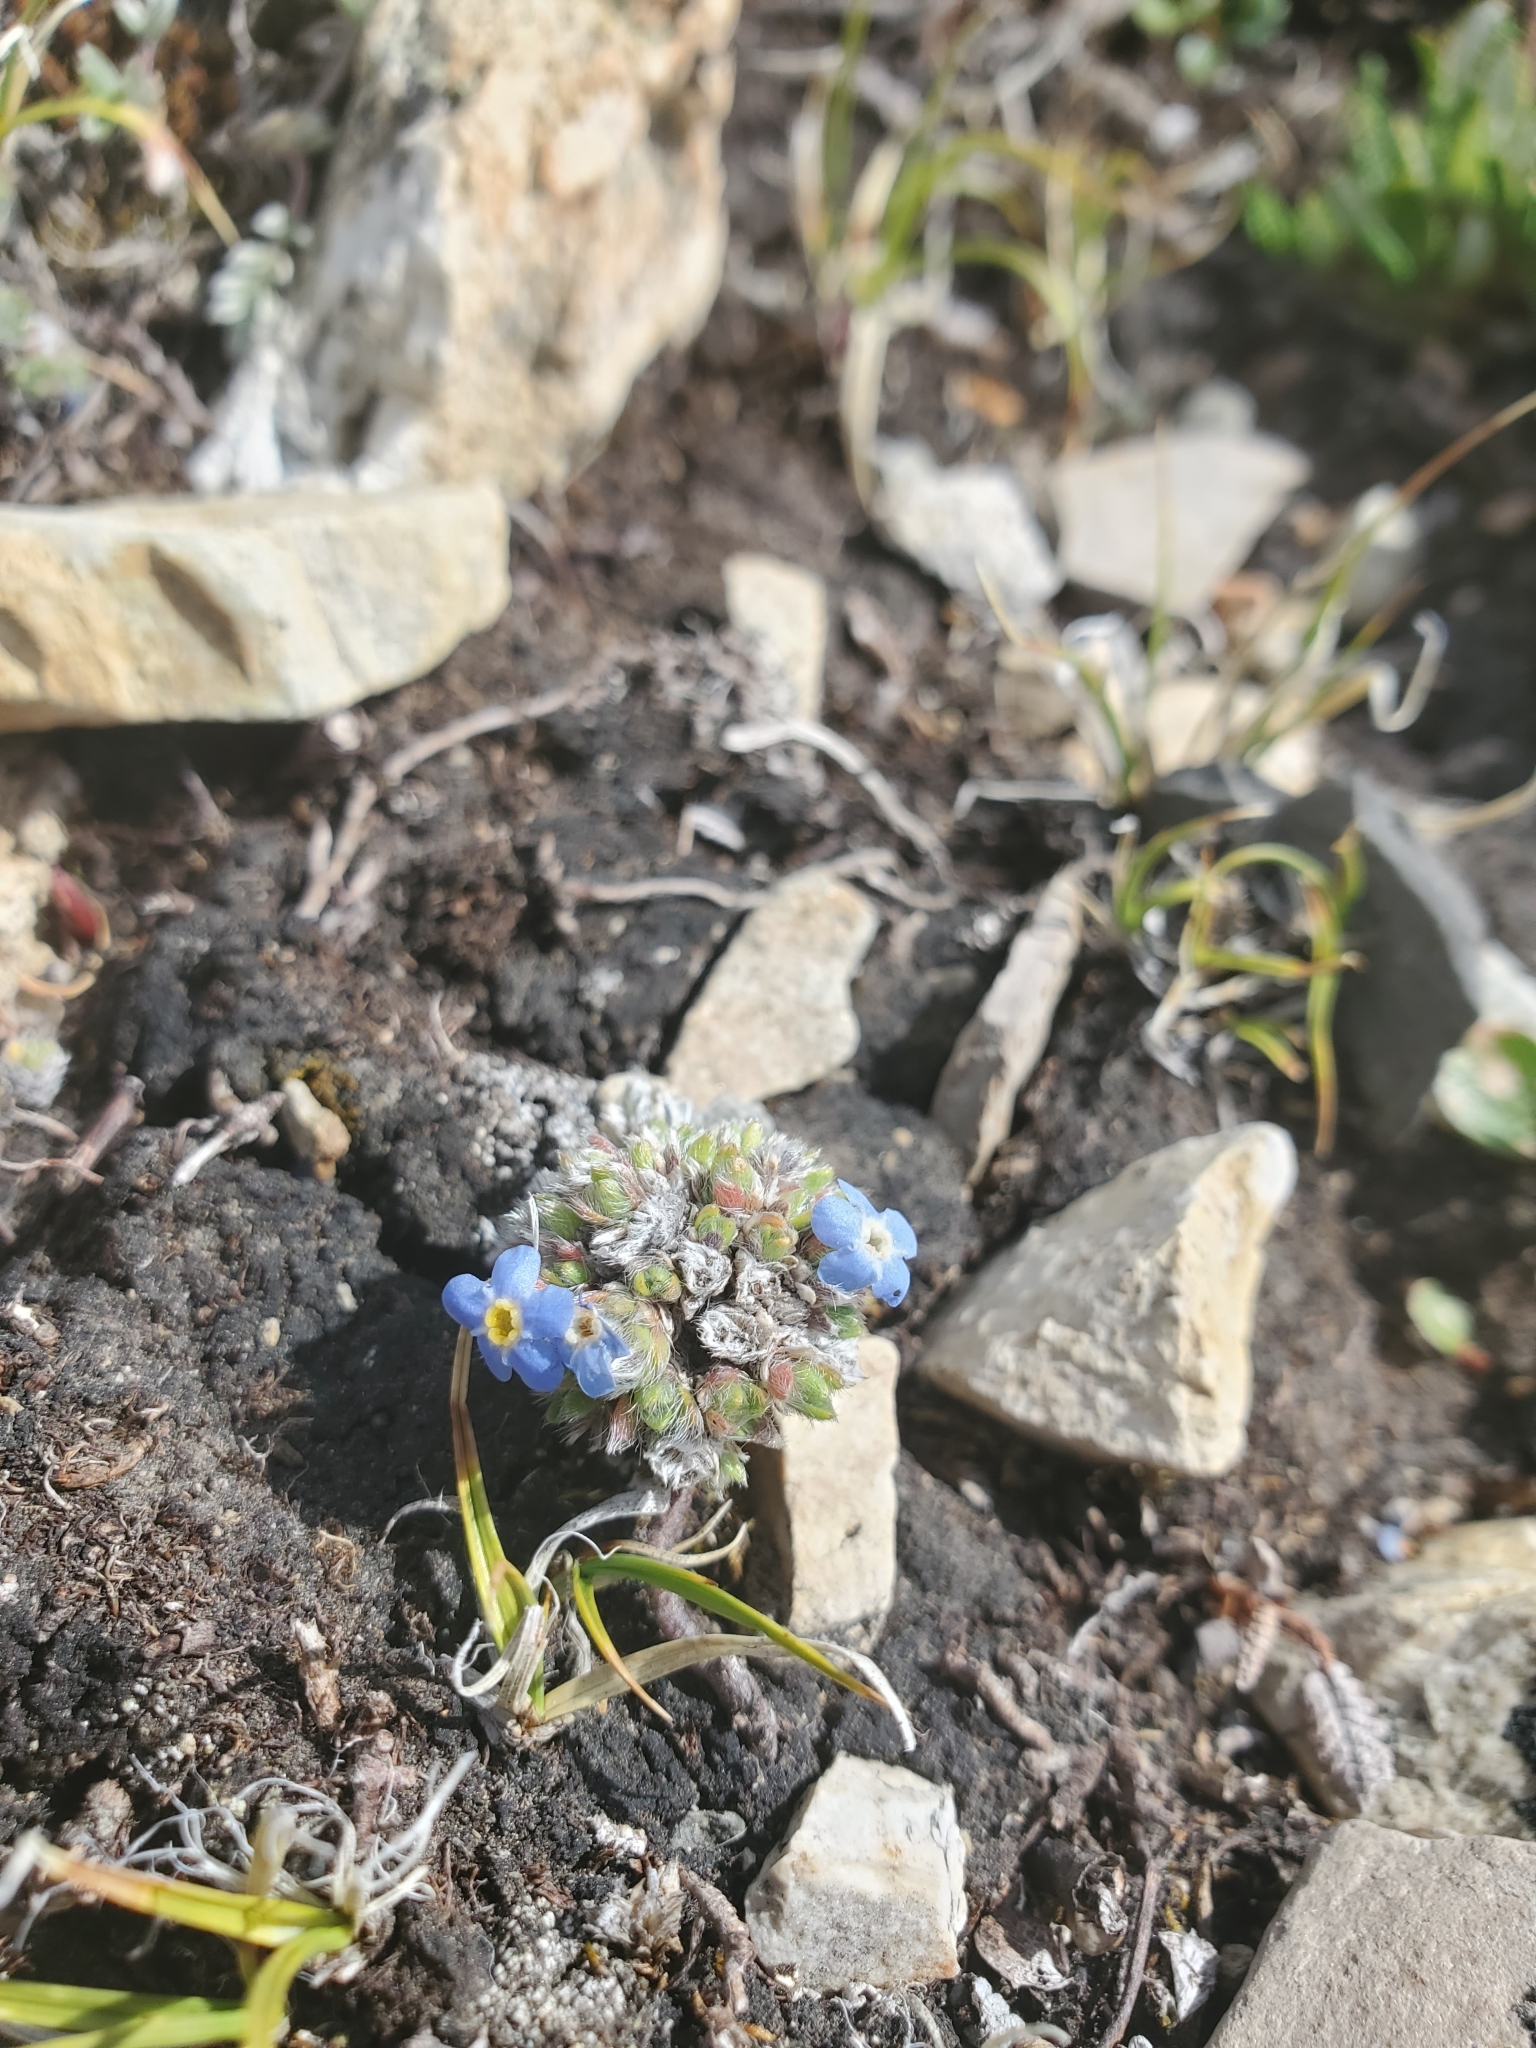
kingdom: Plantae
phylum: Tracheophyta
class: Magnoliopsida
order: Boraginales
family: Boraginaceae
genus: Eritrichium
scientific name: Eritrichium argenteum
